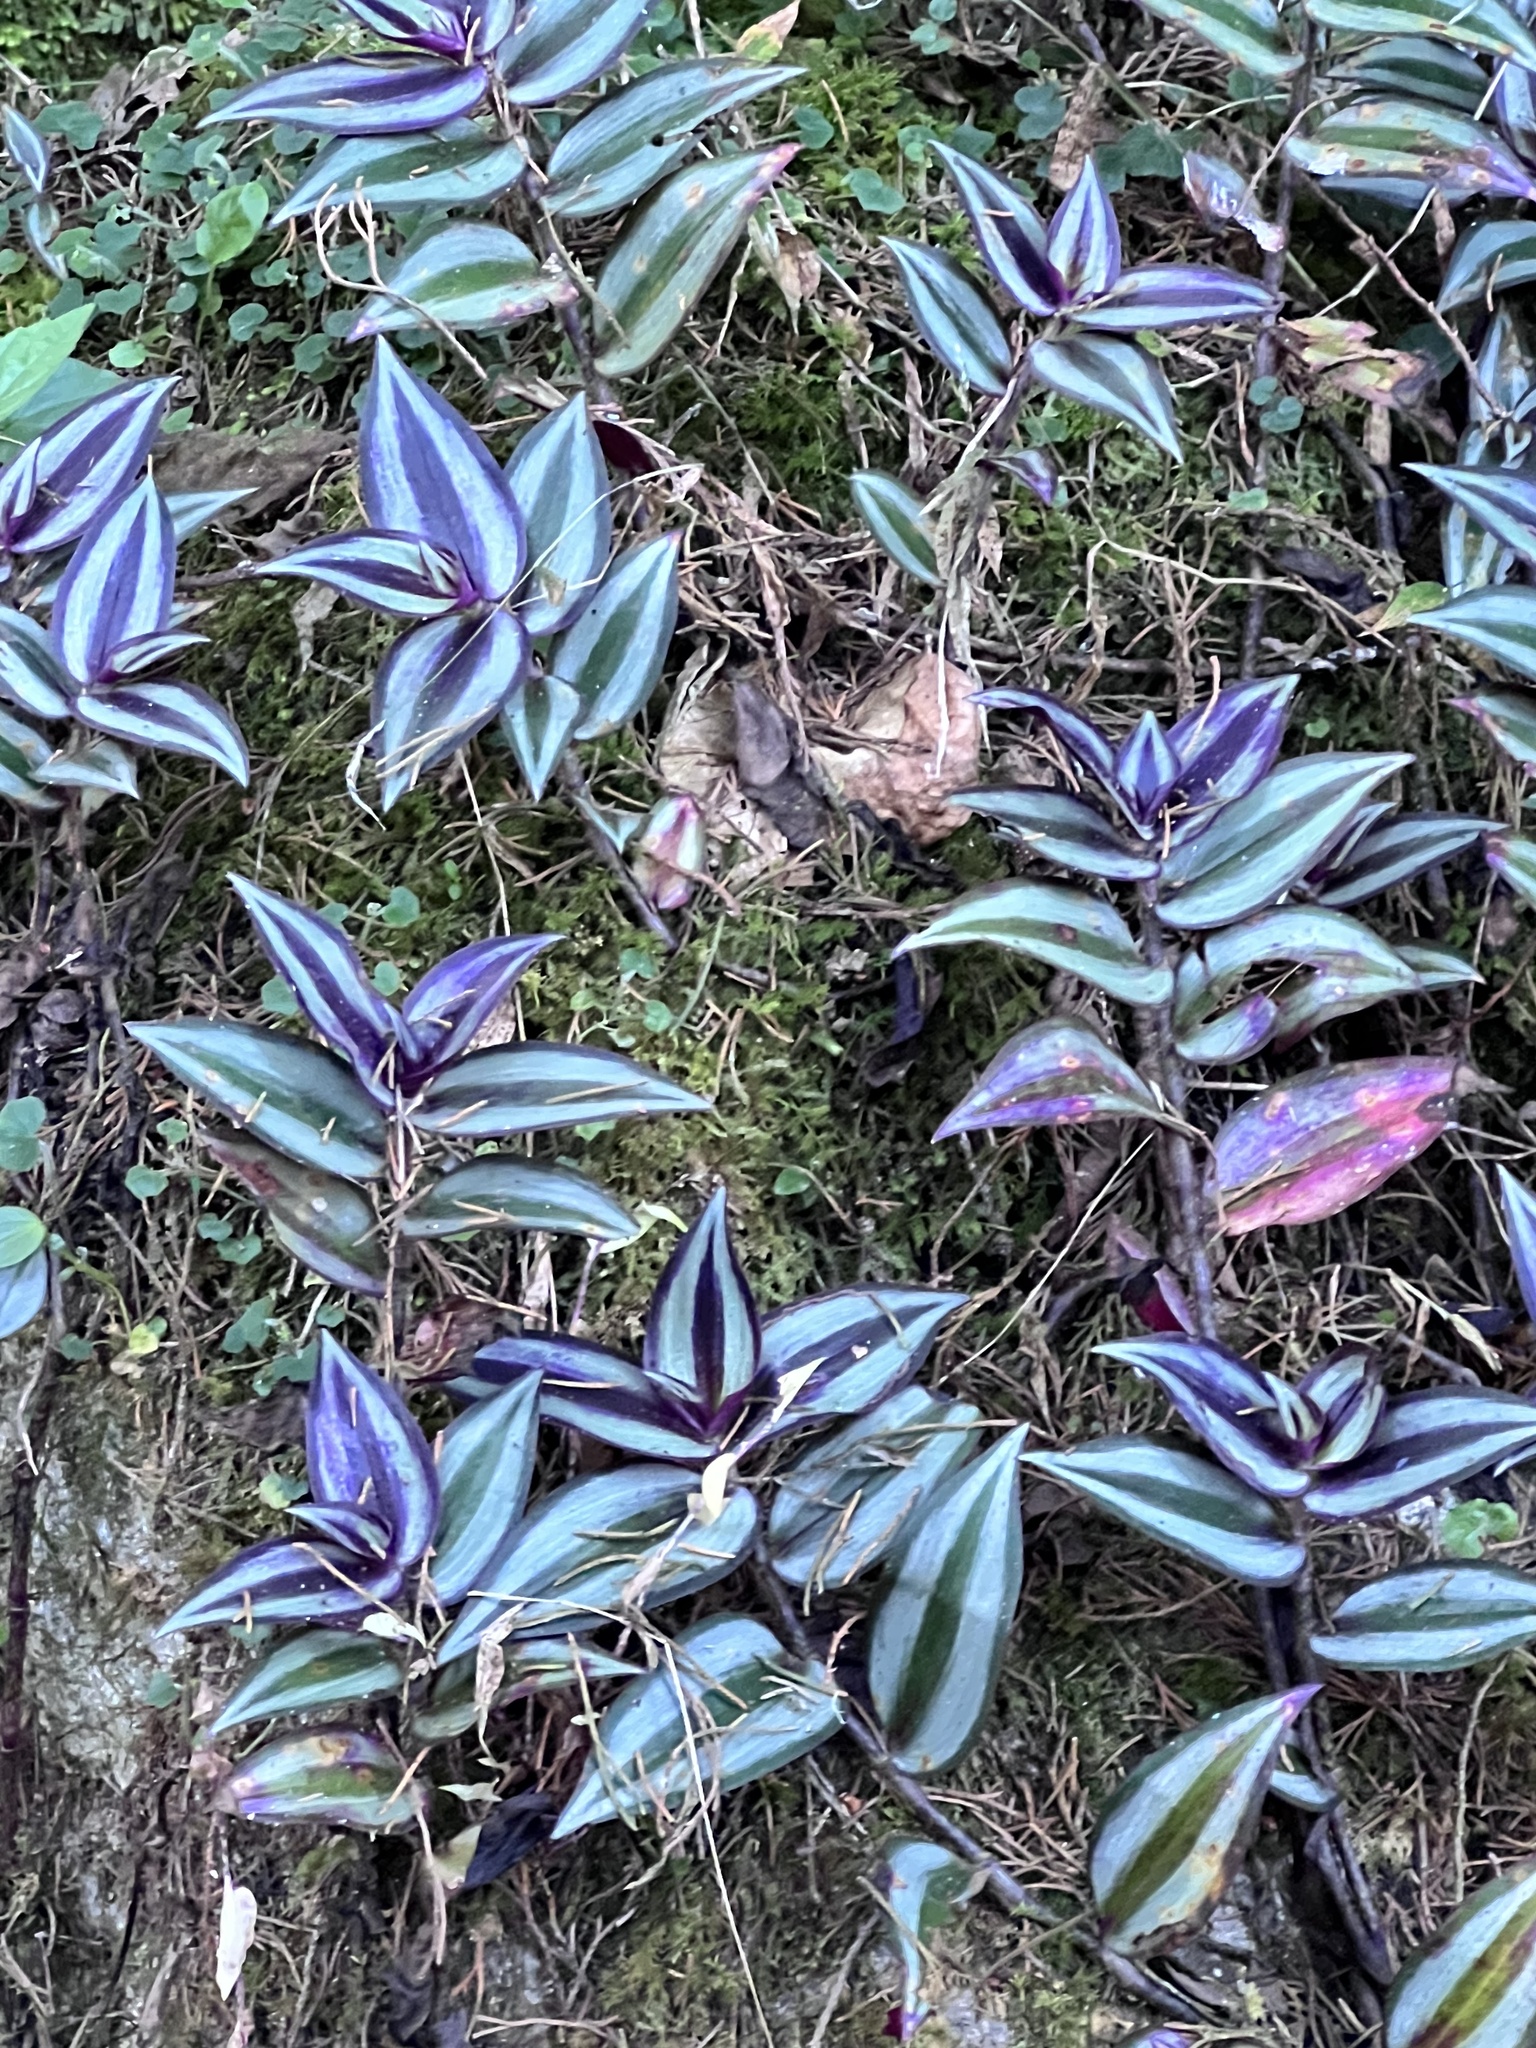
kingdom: Plantae
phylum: Tracheophyta
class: Liliopsida
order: Commelinales
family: Commelinaceae
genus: Tradescantia
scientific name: Tradescantia zebrina
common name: Inchplant
